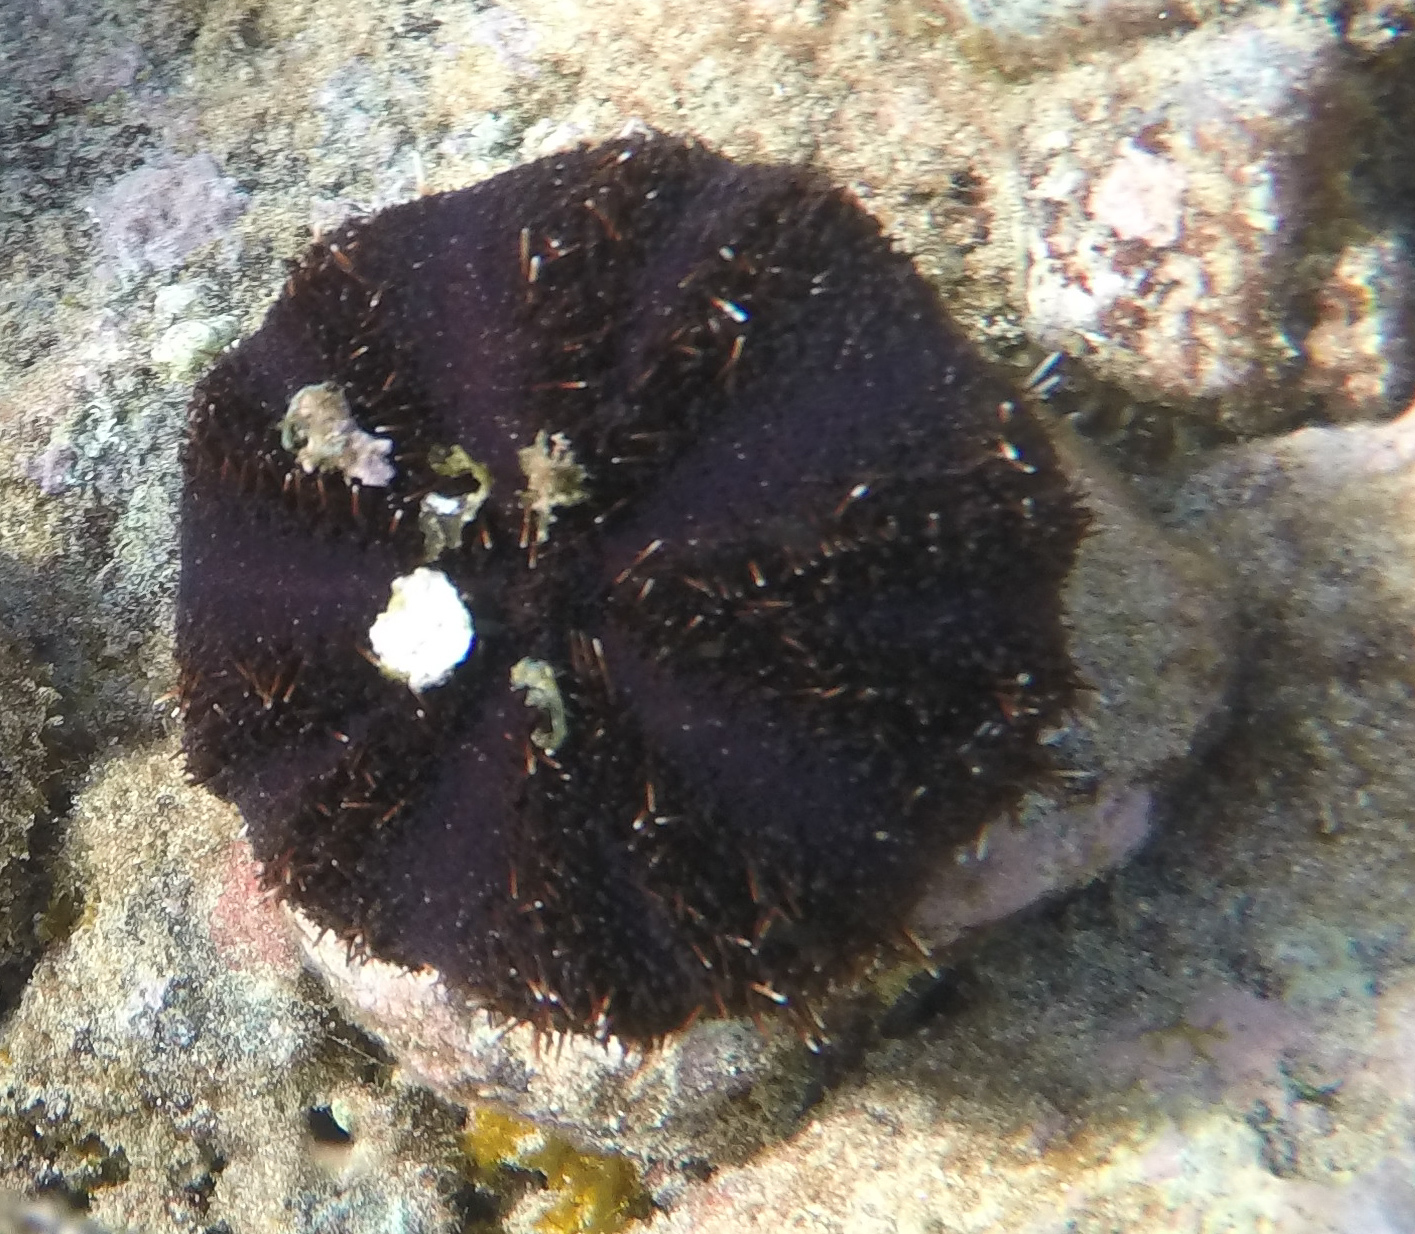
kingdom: Animalia
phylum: Echinodermata
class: Echinoidea
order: Camarodonta
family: Toxopneustidae
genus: Tripneustes
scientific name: Tripneustes gratilla
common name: Bischofsmützenseeigel
